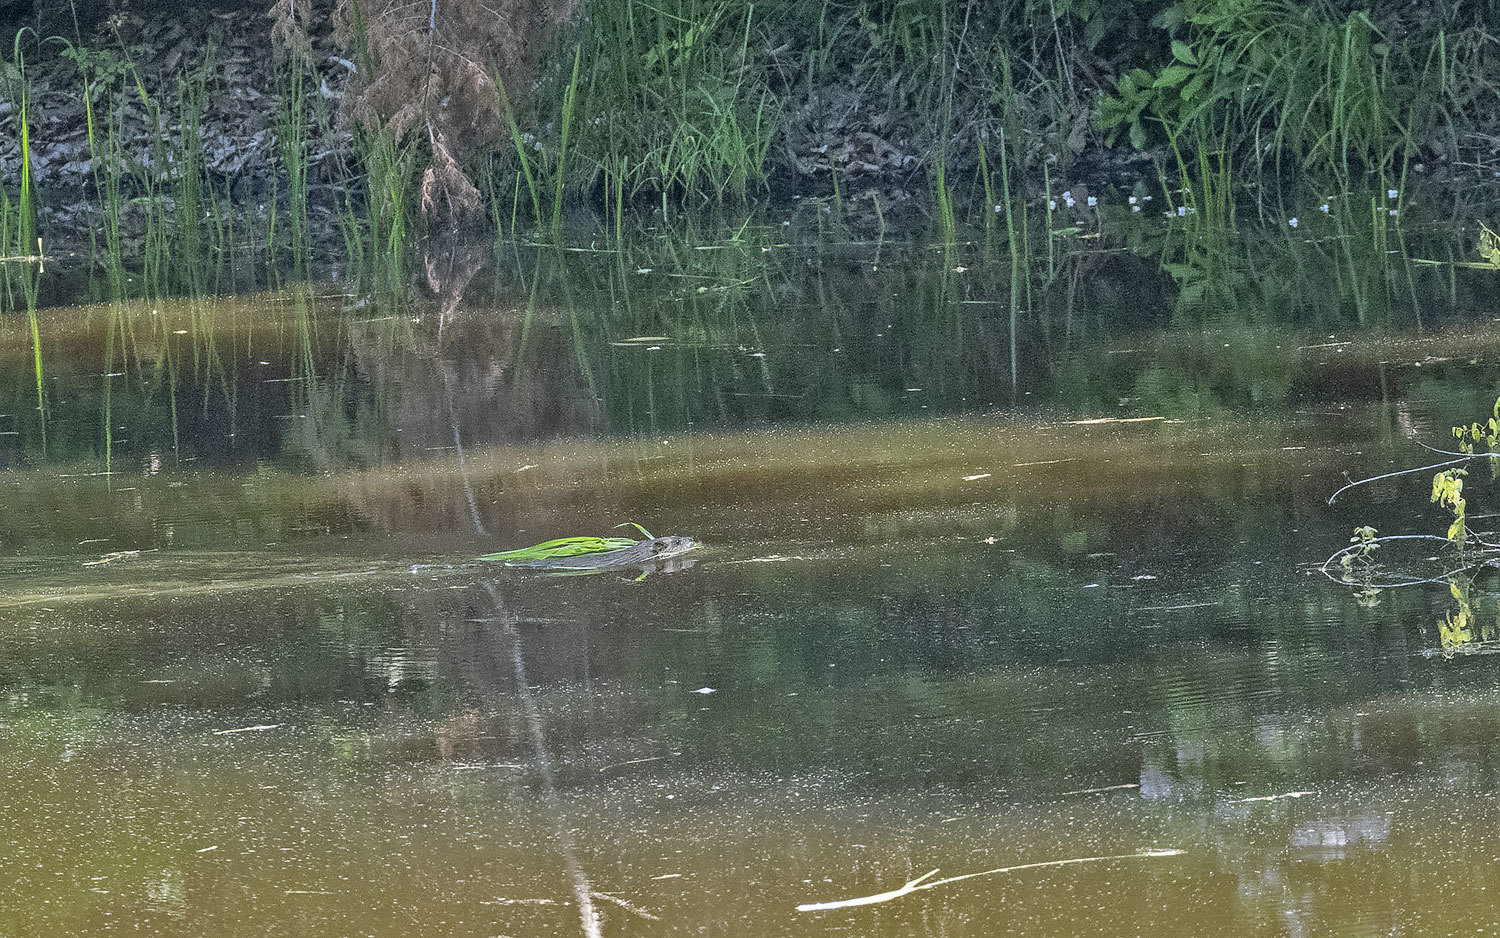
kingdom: Animalia
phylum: Chordata
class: Mammalia
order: Rodentia
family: Cricetidae
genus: Ondatra
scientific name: Ondatra zibethicus
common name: Muskrat
